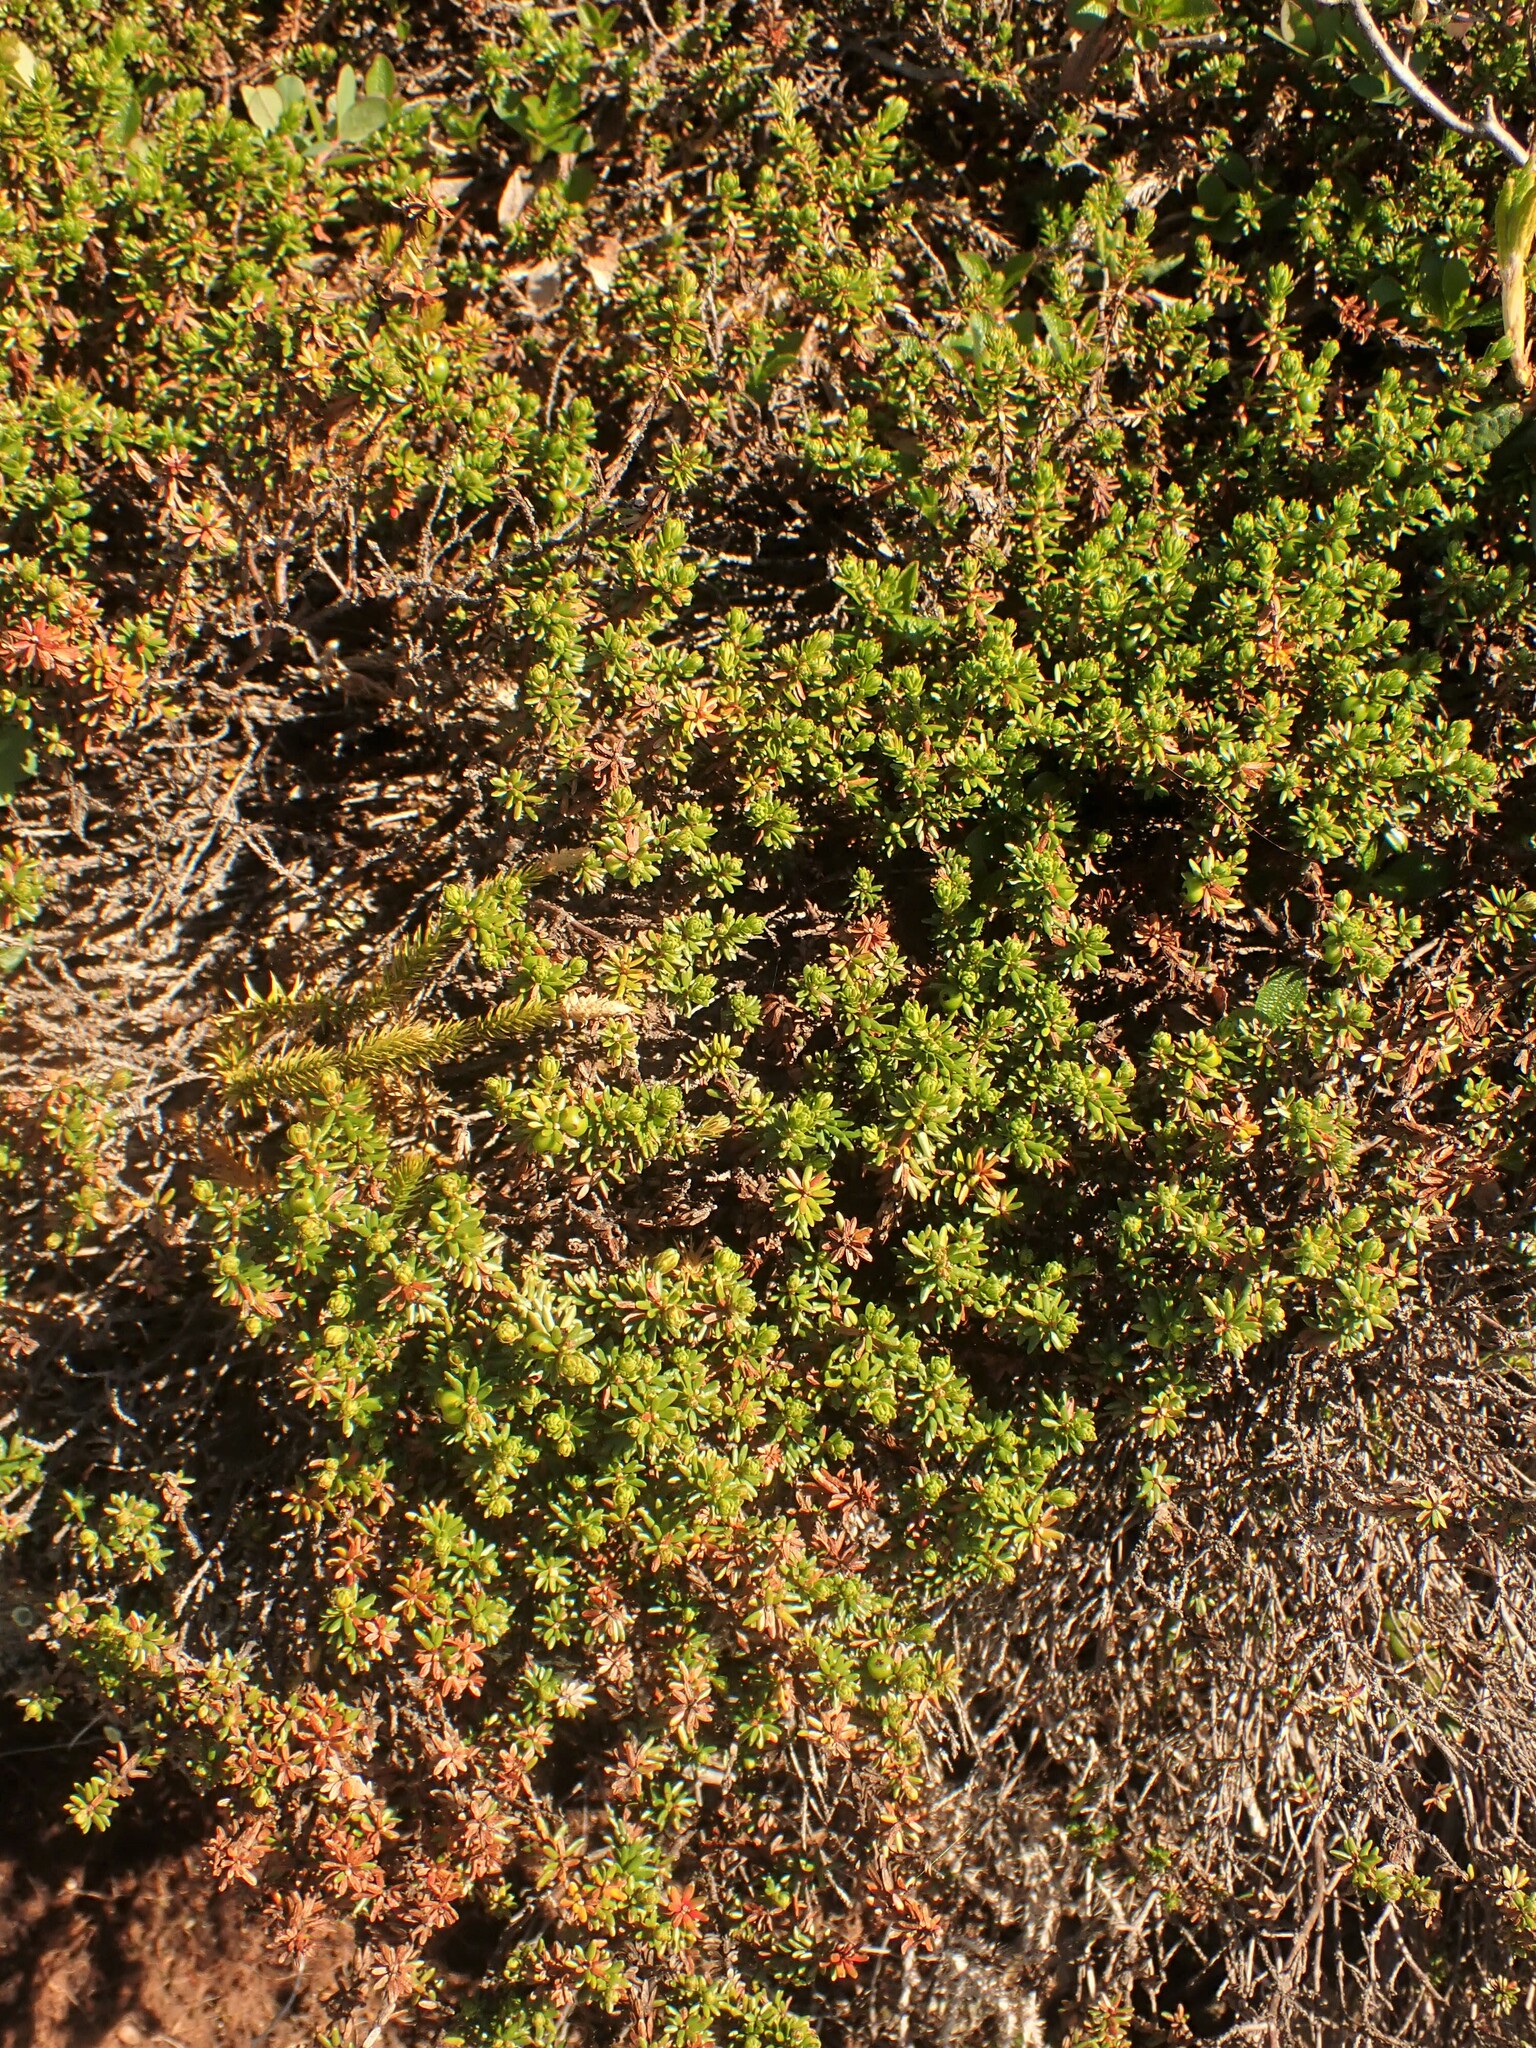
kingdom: Plantae
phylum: Tracheophyta
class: Magnoliopsida
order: Ericales
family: Ericaceae
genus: Empetrum
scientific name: Empetrum nigrum
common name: Black crowberry
